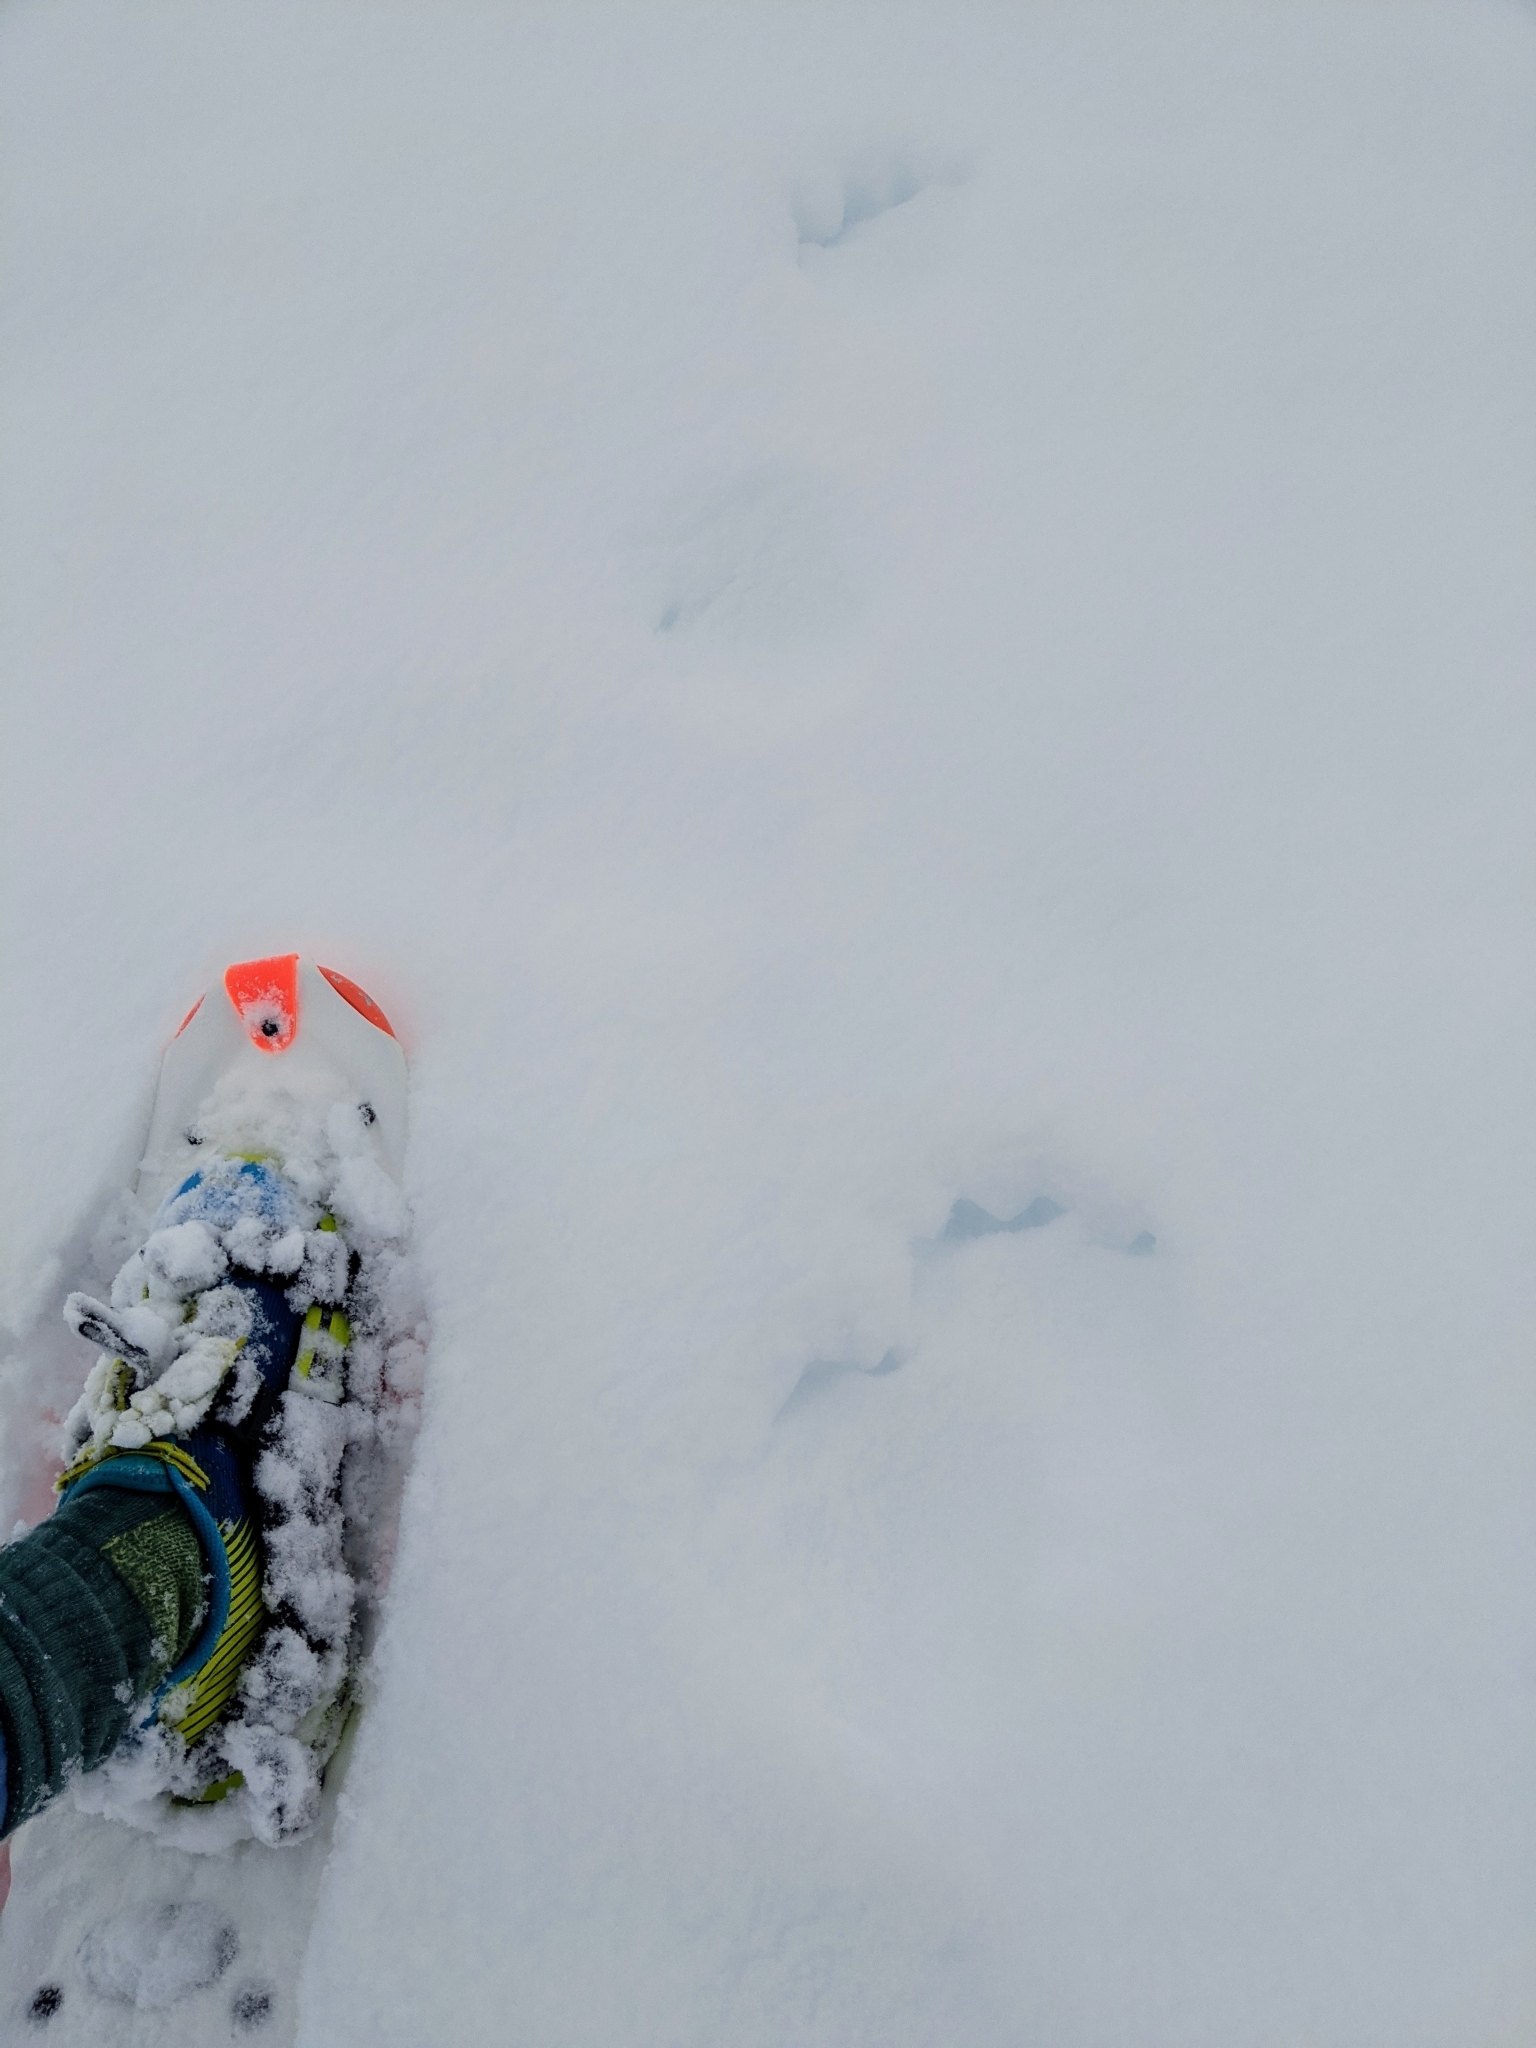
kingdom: Animalia
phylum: Chordata
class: Mammalia
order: Carnivora
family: Mustelidae
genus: Gulo
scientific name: Gulo gulo
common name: Wolverine
